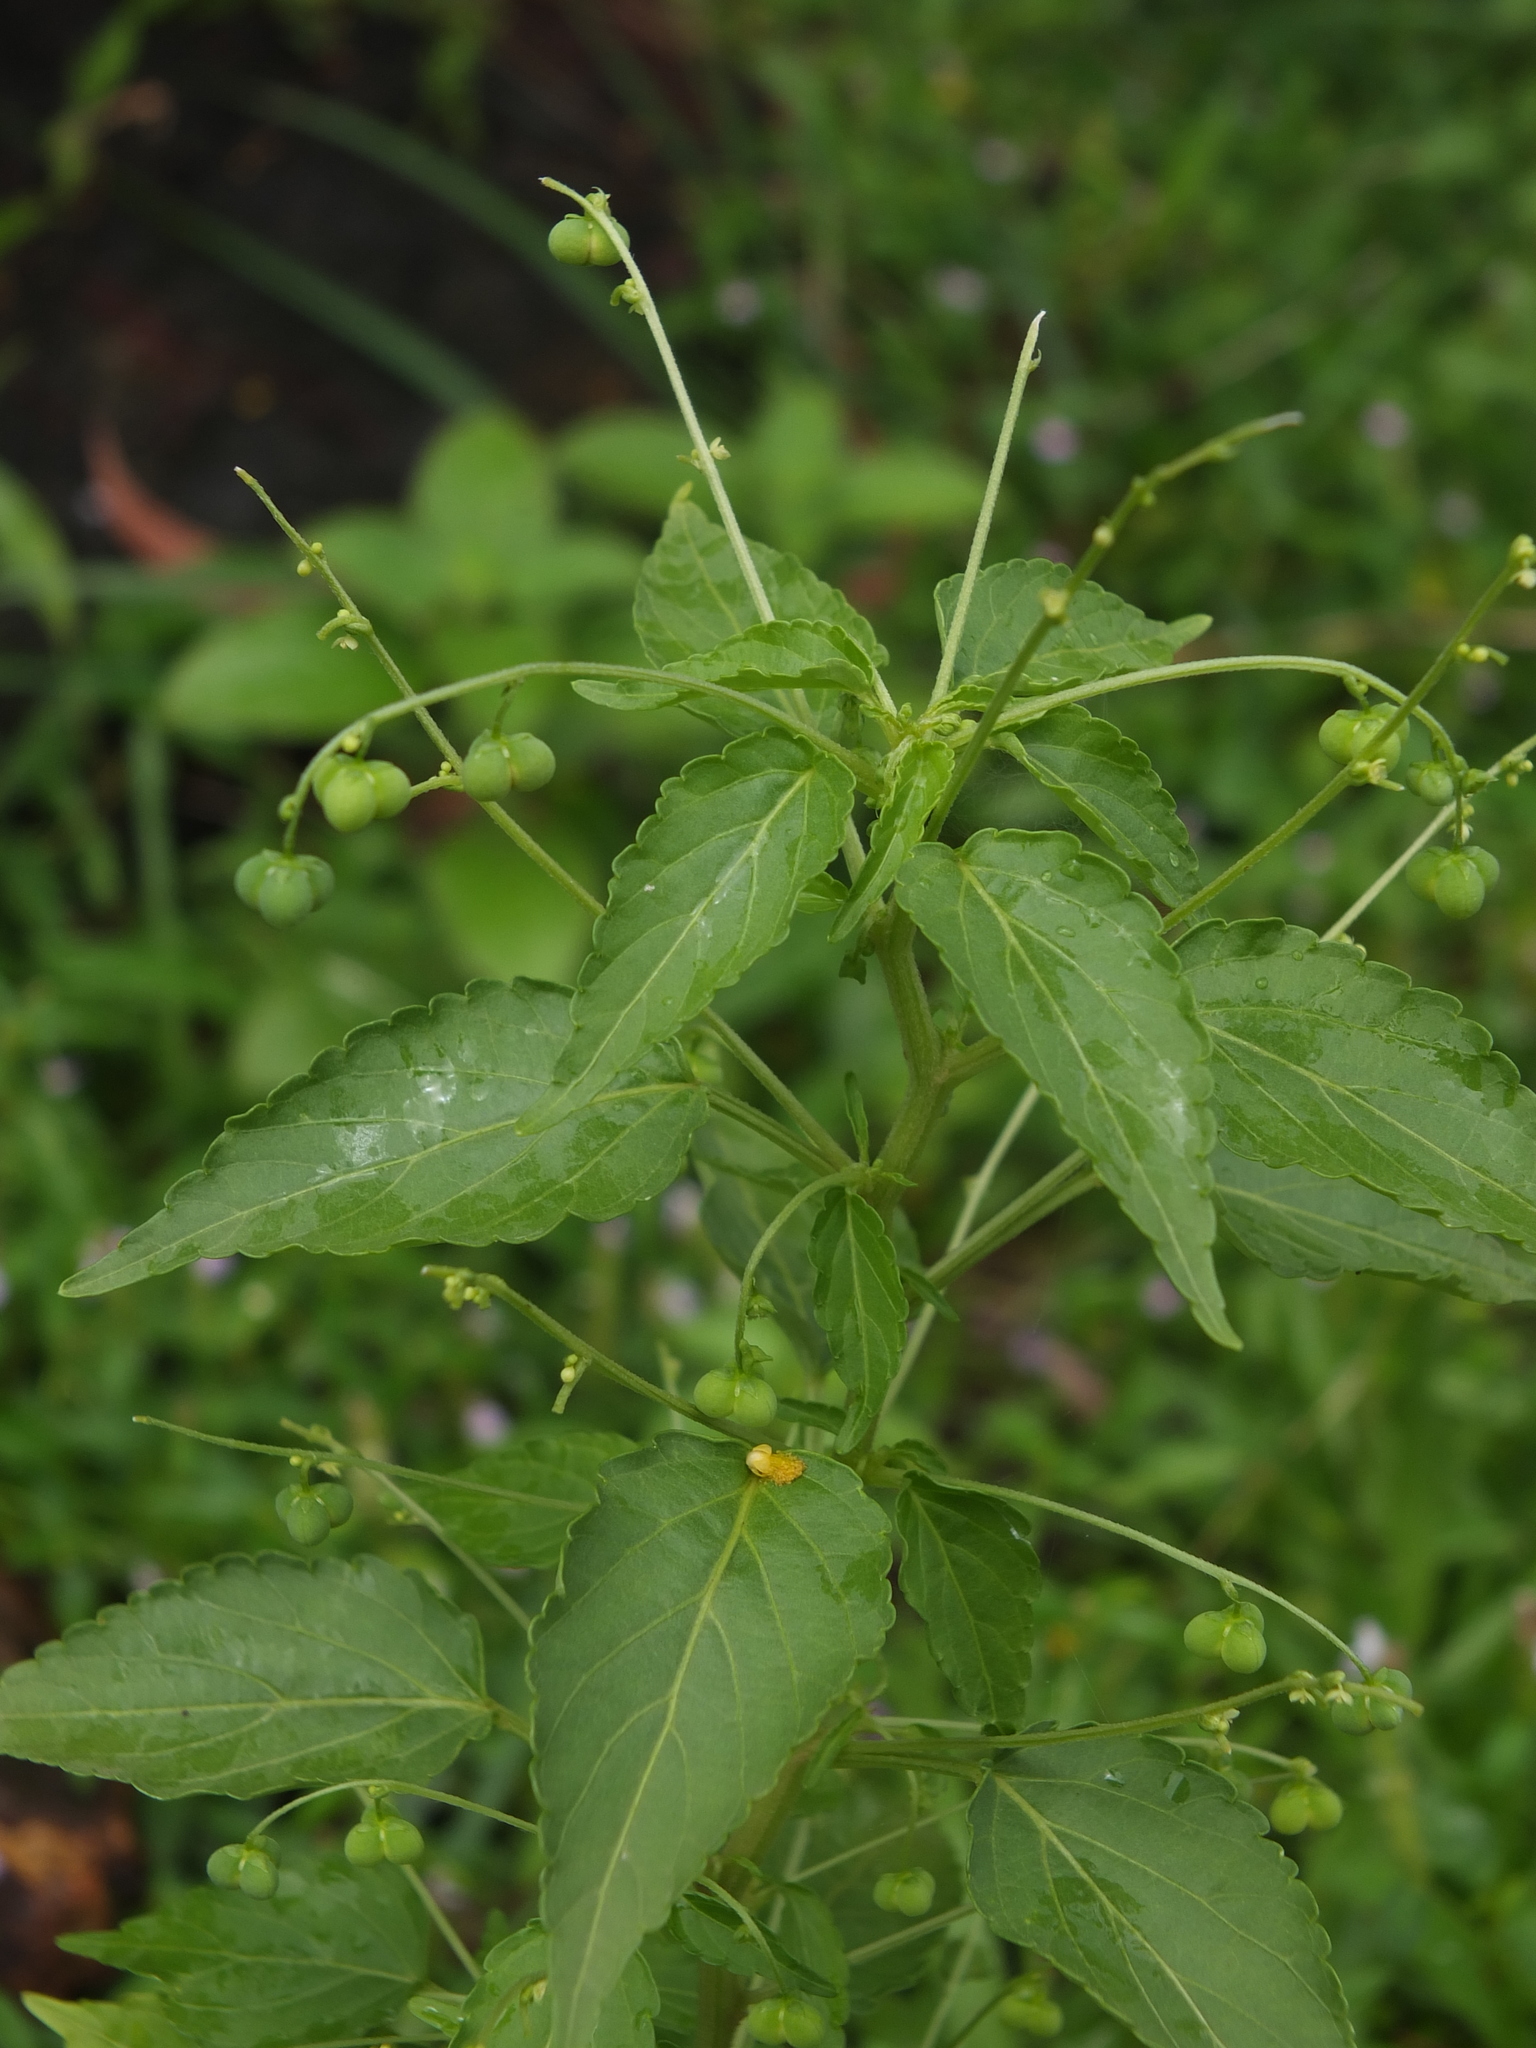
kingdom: Plantae
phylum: Tracheophyta
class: Magnoliopsida
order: Malpighiales
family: Euphorbiaceae
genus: Micrococca
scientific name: Micrococca mercurialis
